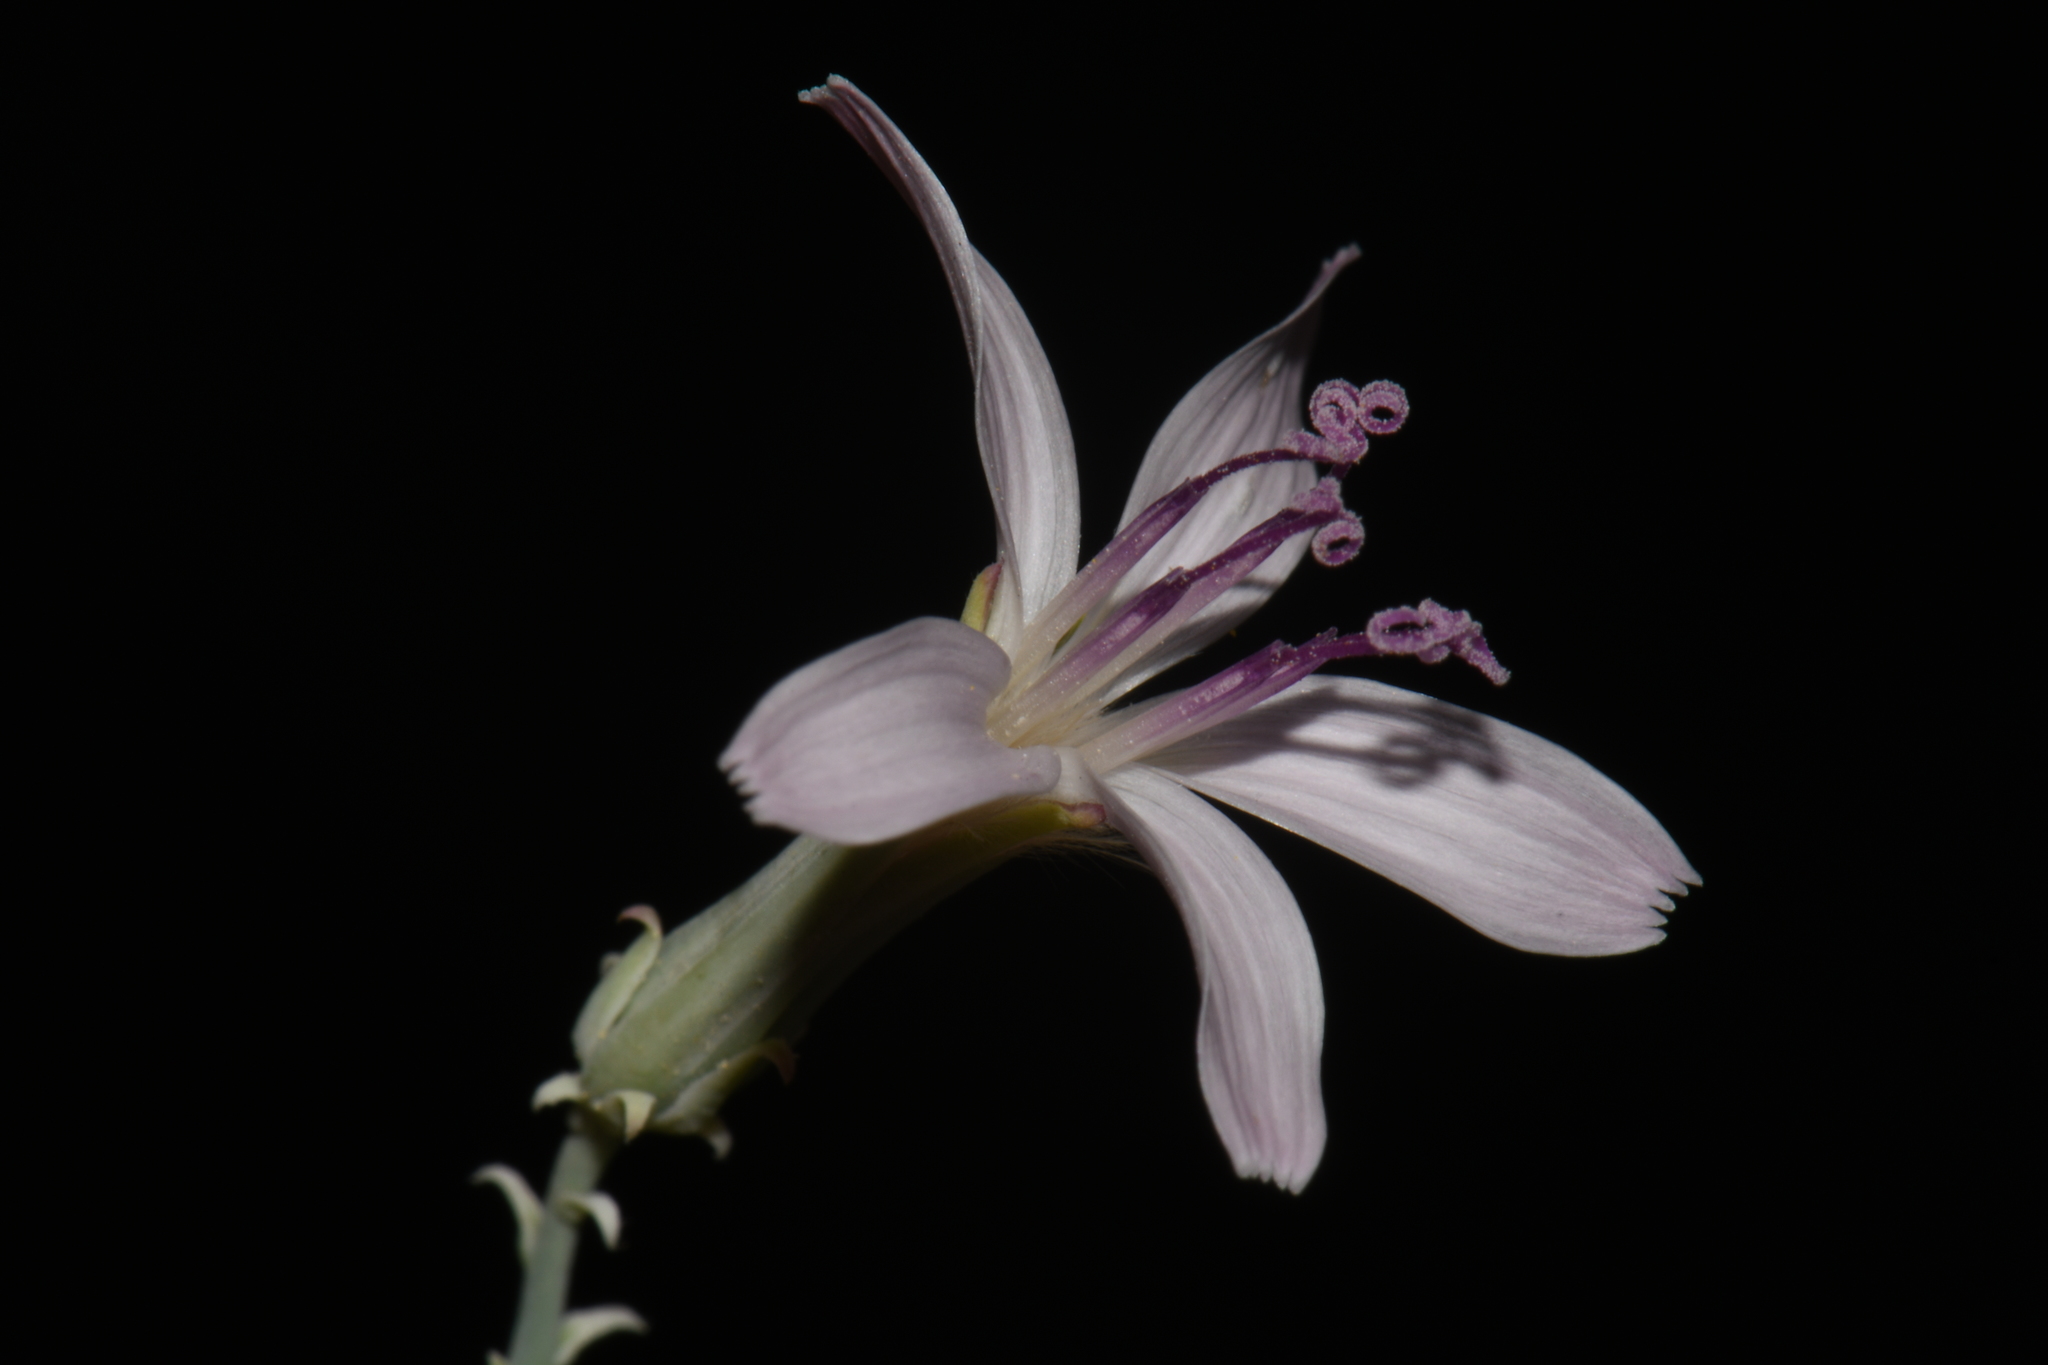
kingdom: Plantae
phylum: Tracheophyta
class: Magnoliopsida
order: Asterales
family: Asteraceae
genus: Stephanomeria
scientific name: Stephanomeria pauciflora
